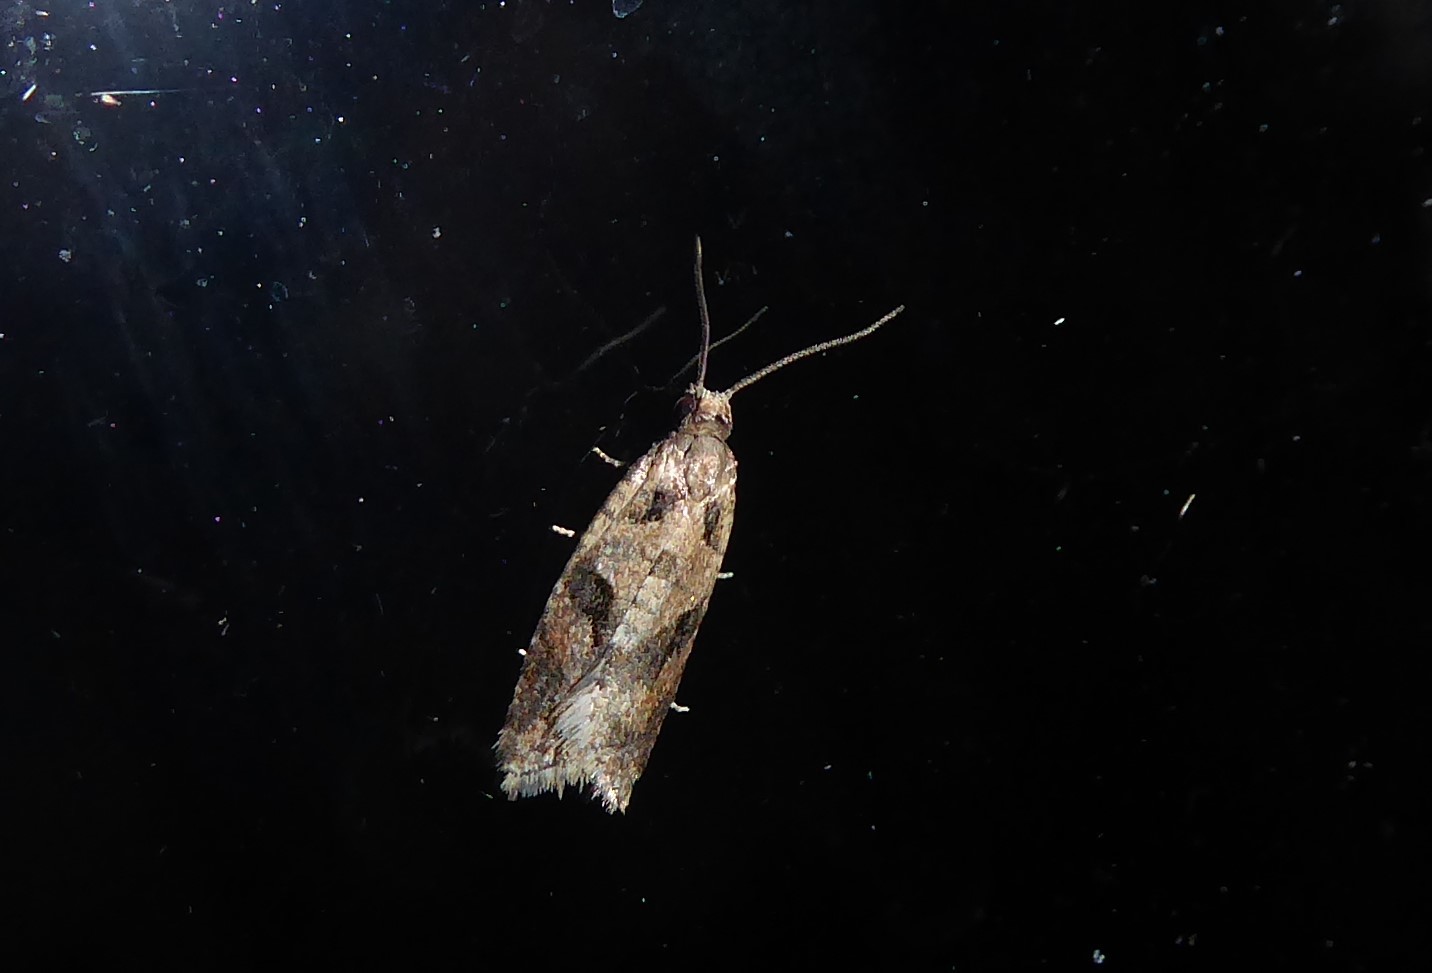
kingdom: Animalia
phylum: Arthropoda
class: Insecta
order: Lepidoptera
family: Tortricidae
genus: Capua
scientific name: Capua semiferana
